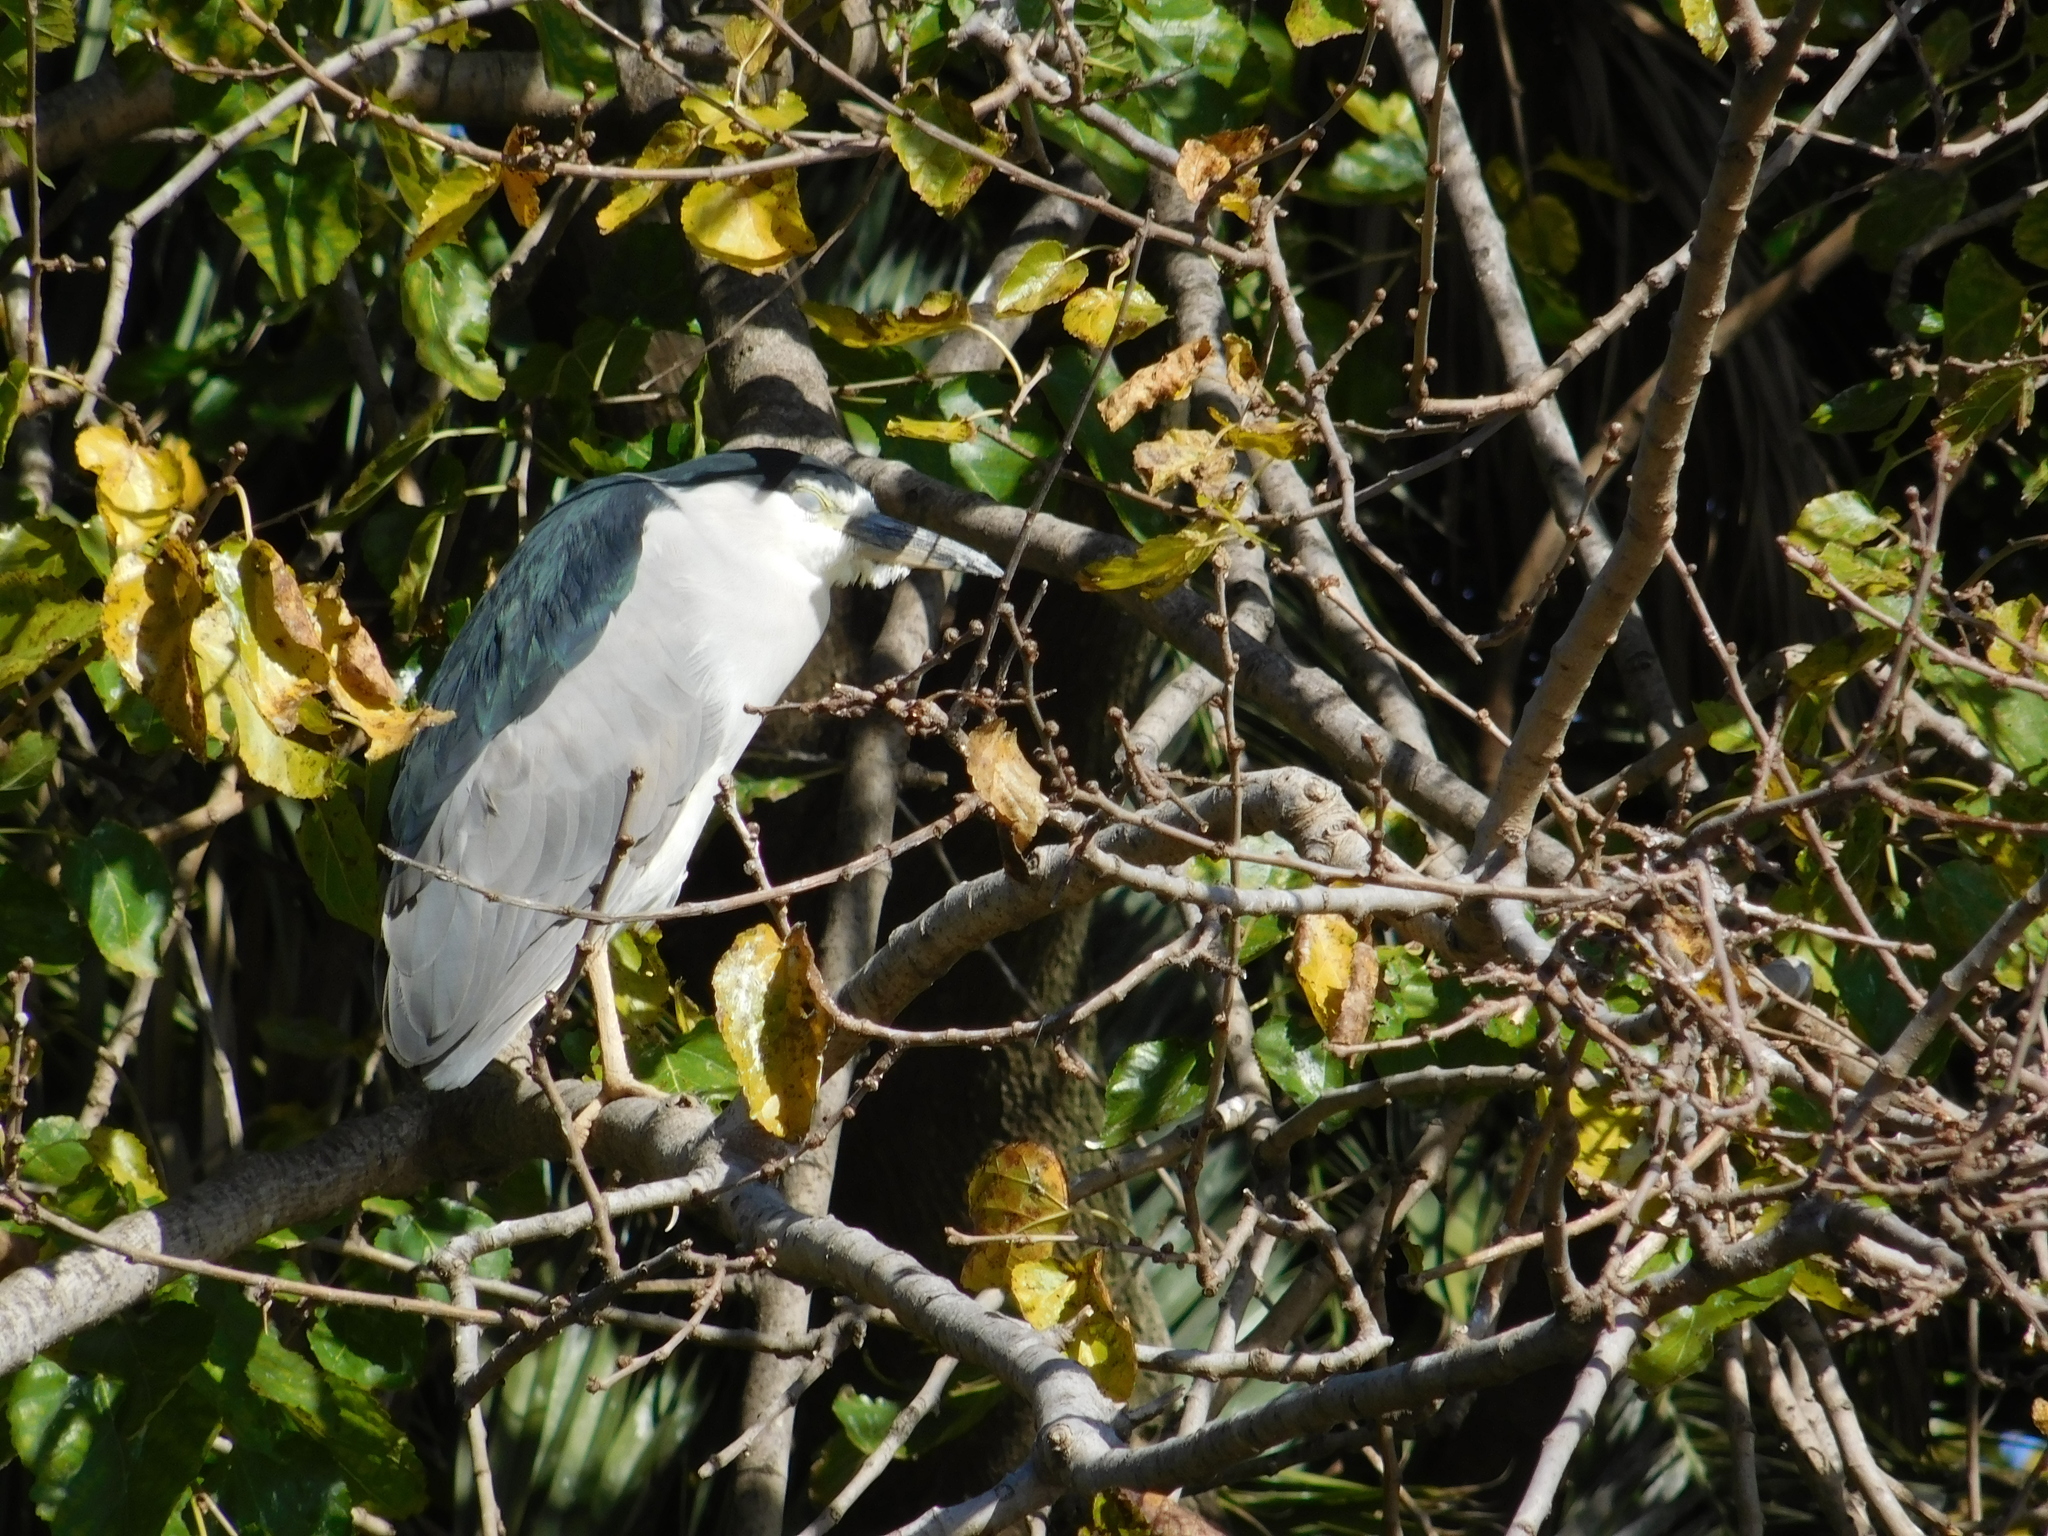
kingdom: Animalia
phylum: Chordata
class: Aves
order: Pelecaniformes
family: Ardeidae
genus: Nycticorax
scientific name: Nycticorax nycticorax
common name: Black-crowned night heron
